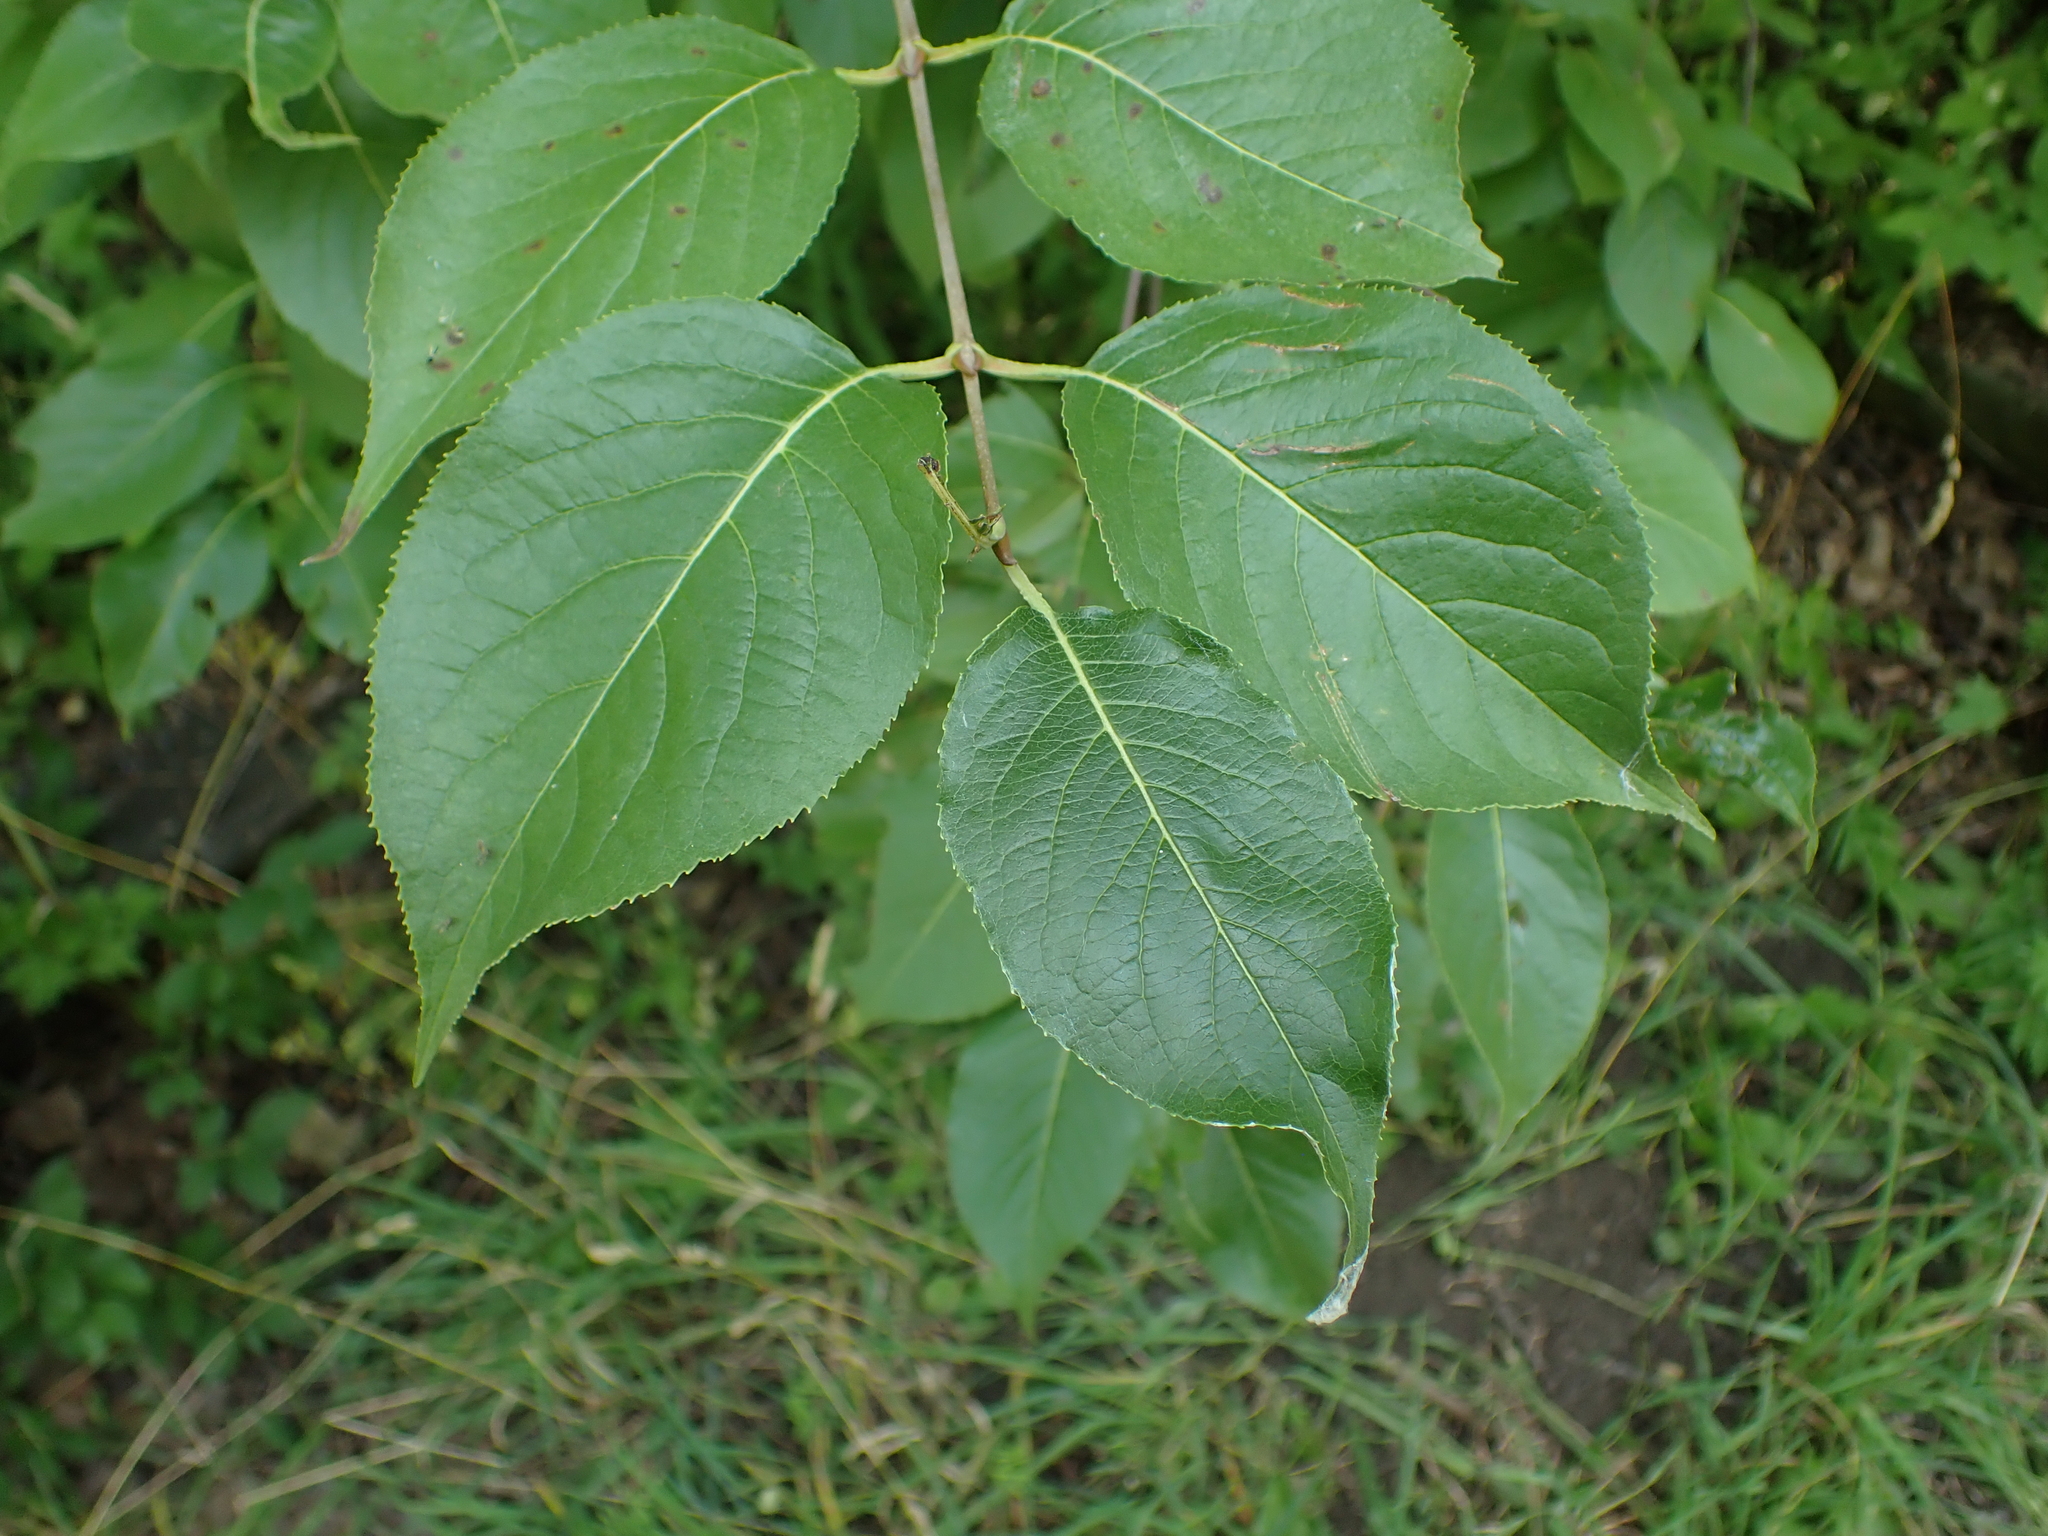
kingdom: Plantae
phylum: Tracheophyta
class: Magnoliopsida
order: Dipsacales
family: Viburnaceae
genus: Viburnum
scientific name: Viburnum lentago
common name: Black haw
